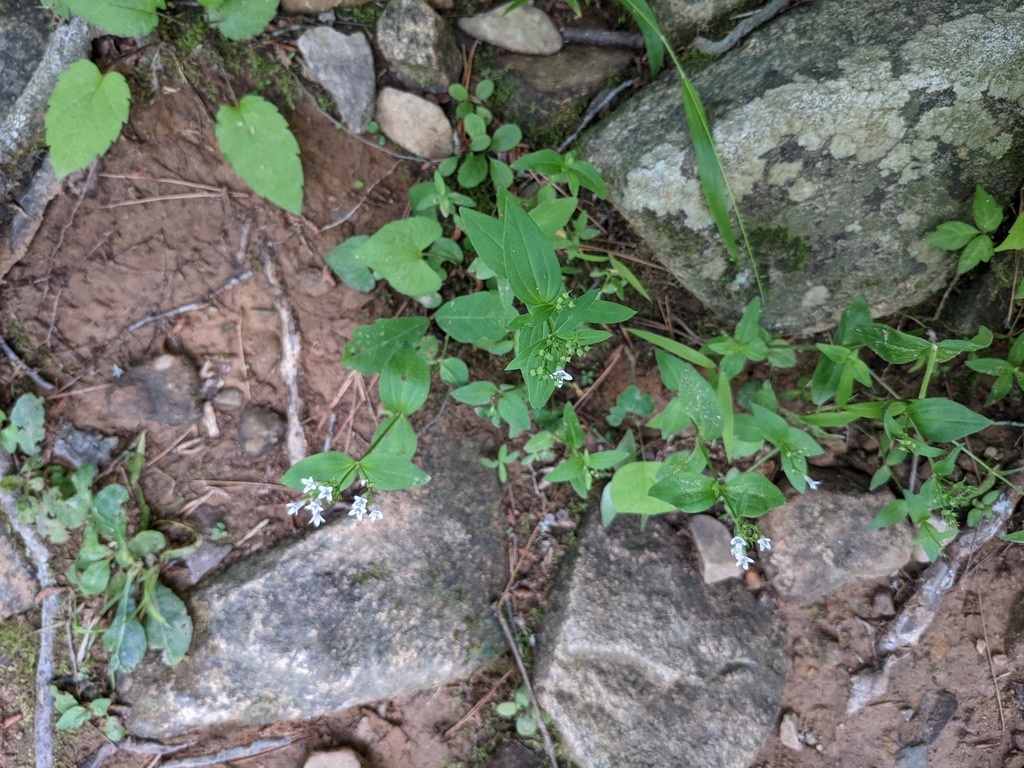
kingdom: Plantae
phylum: Tracheophyta
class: Magnoliopsida
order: Gentianales
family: Rubiaceae
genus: Houstonia
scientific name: Houstonia purpurea
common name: Summer bluet
